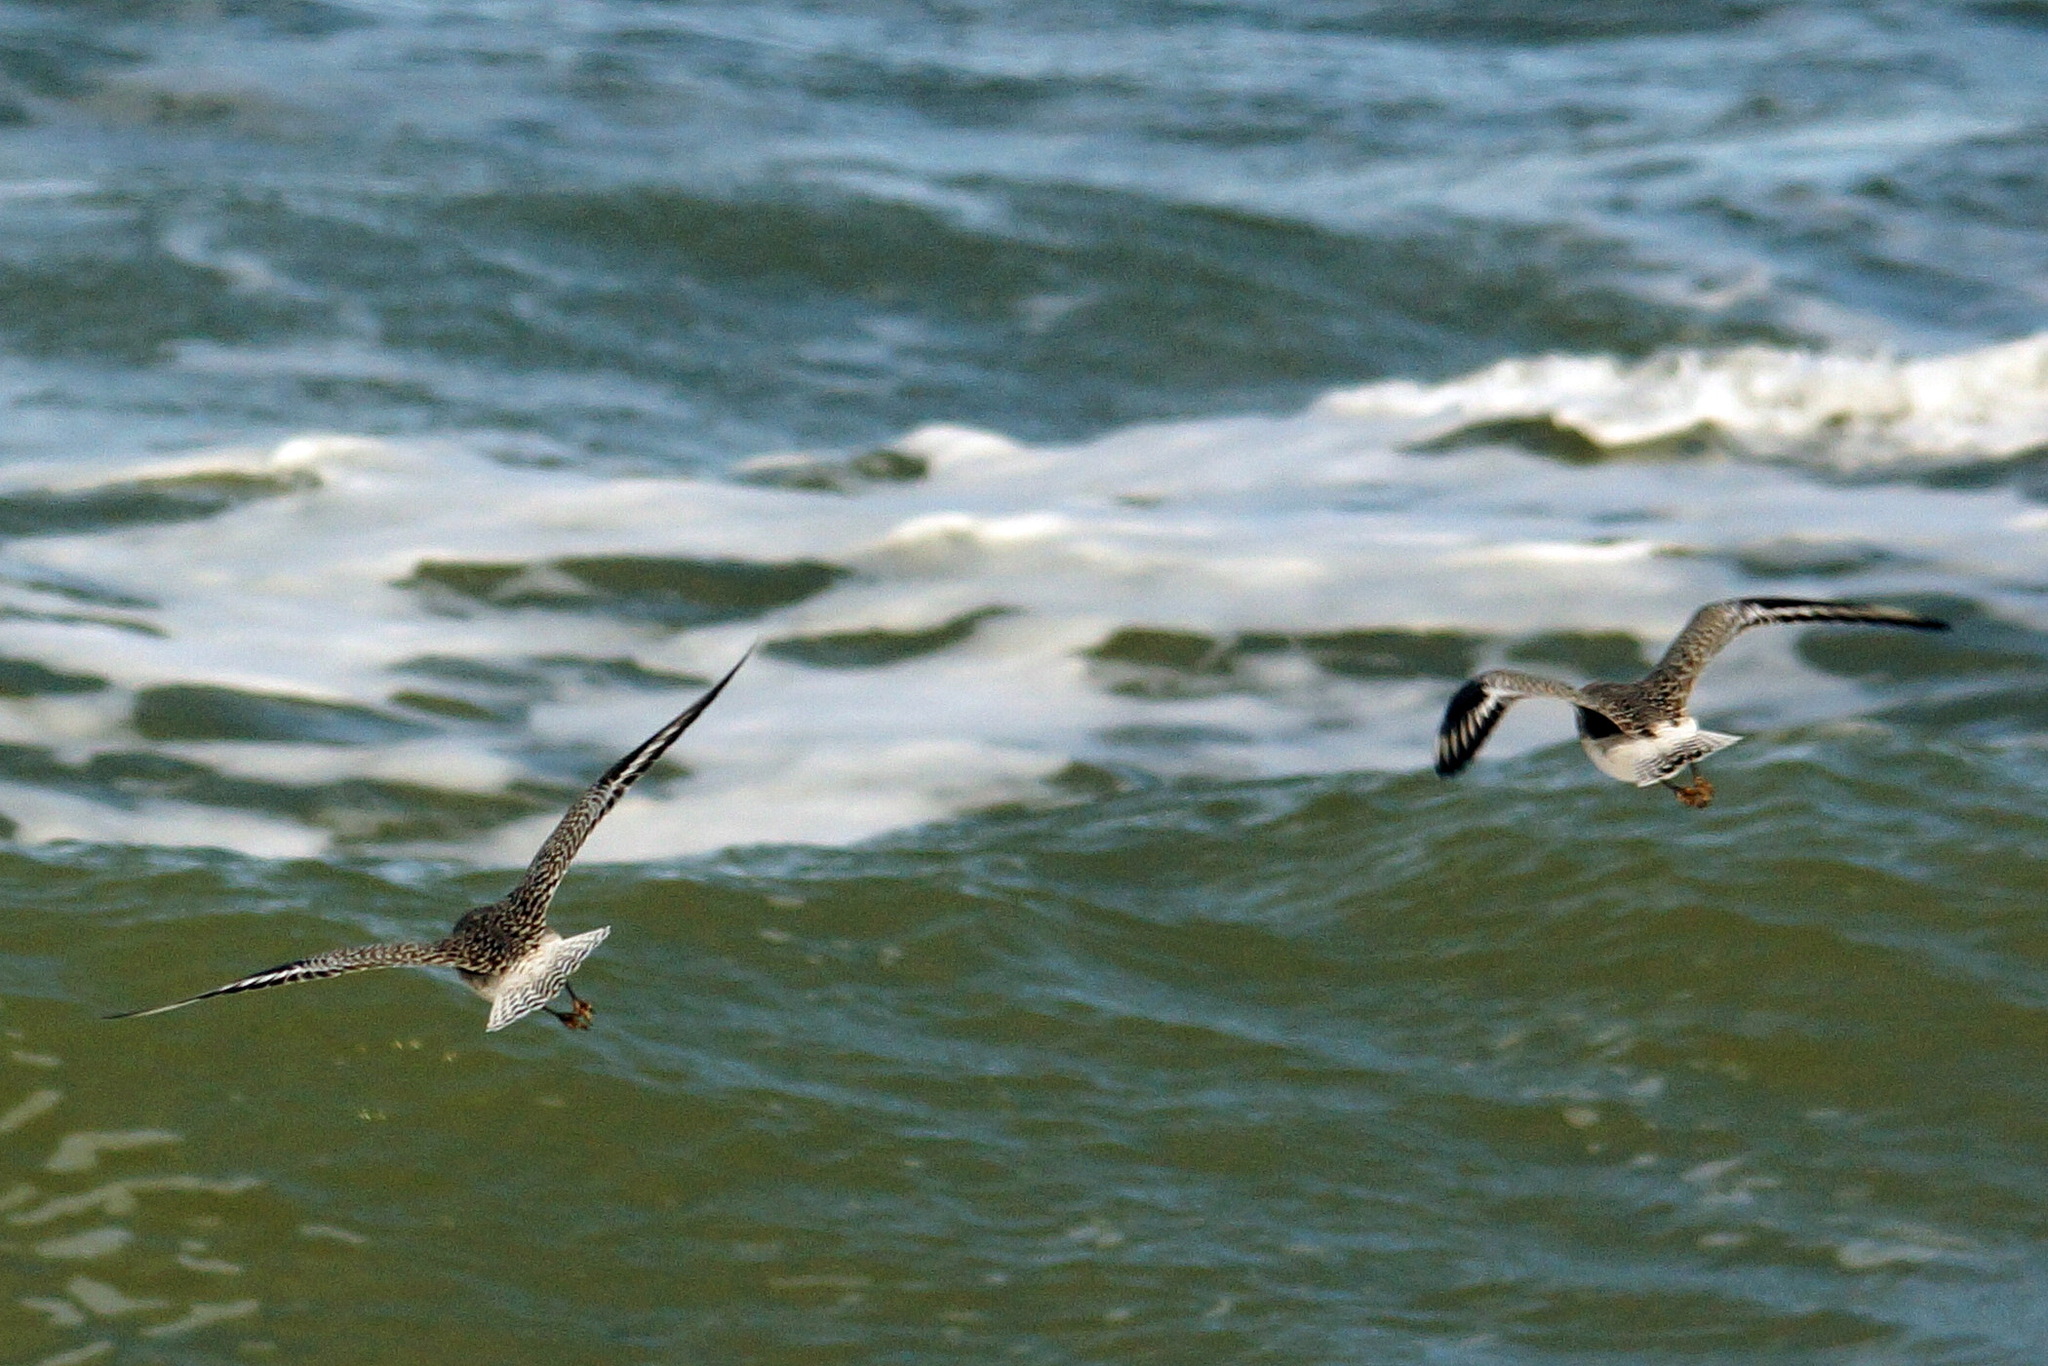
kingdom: Animalia
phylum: Chordata
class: Aves
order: Charadriiformes
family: Charadriidae
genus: Pluvialis
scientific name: Pluvialis squatarola
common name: Grey plover
